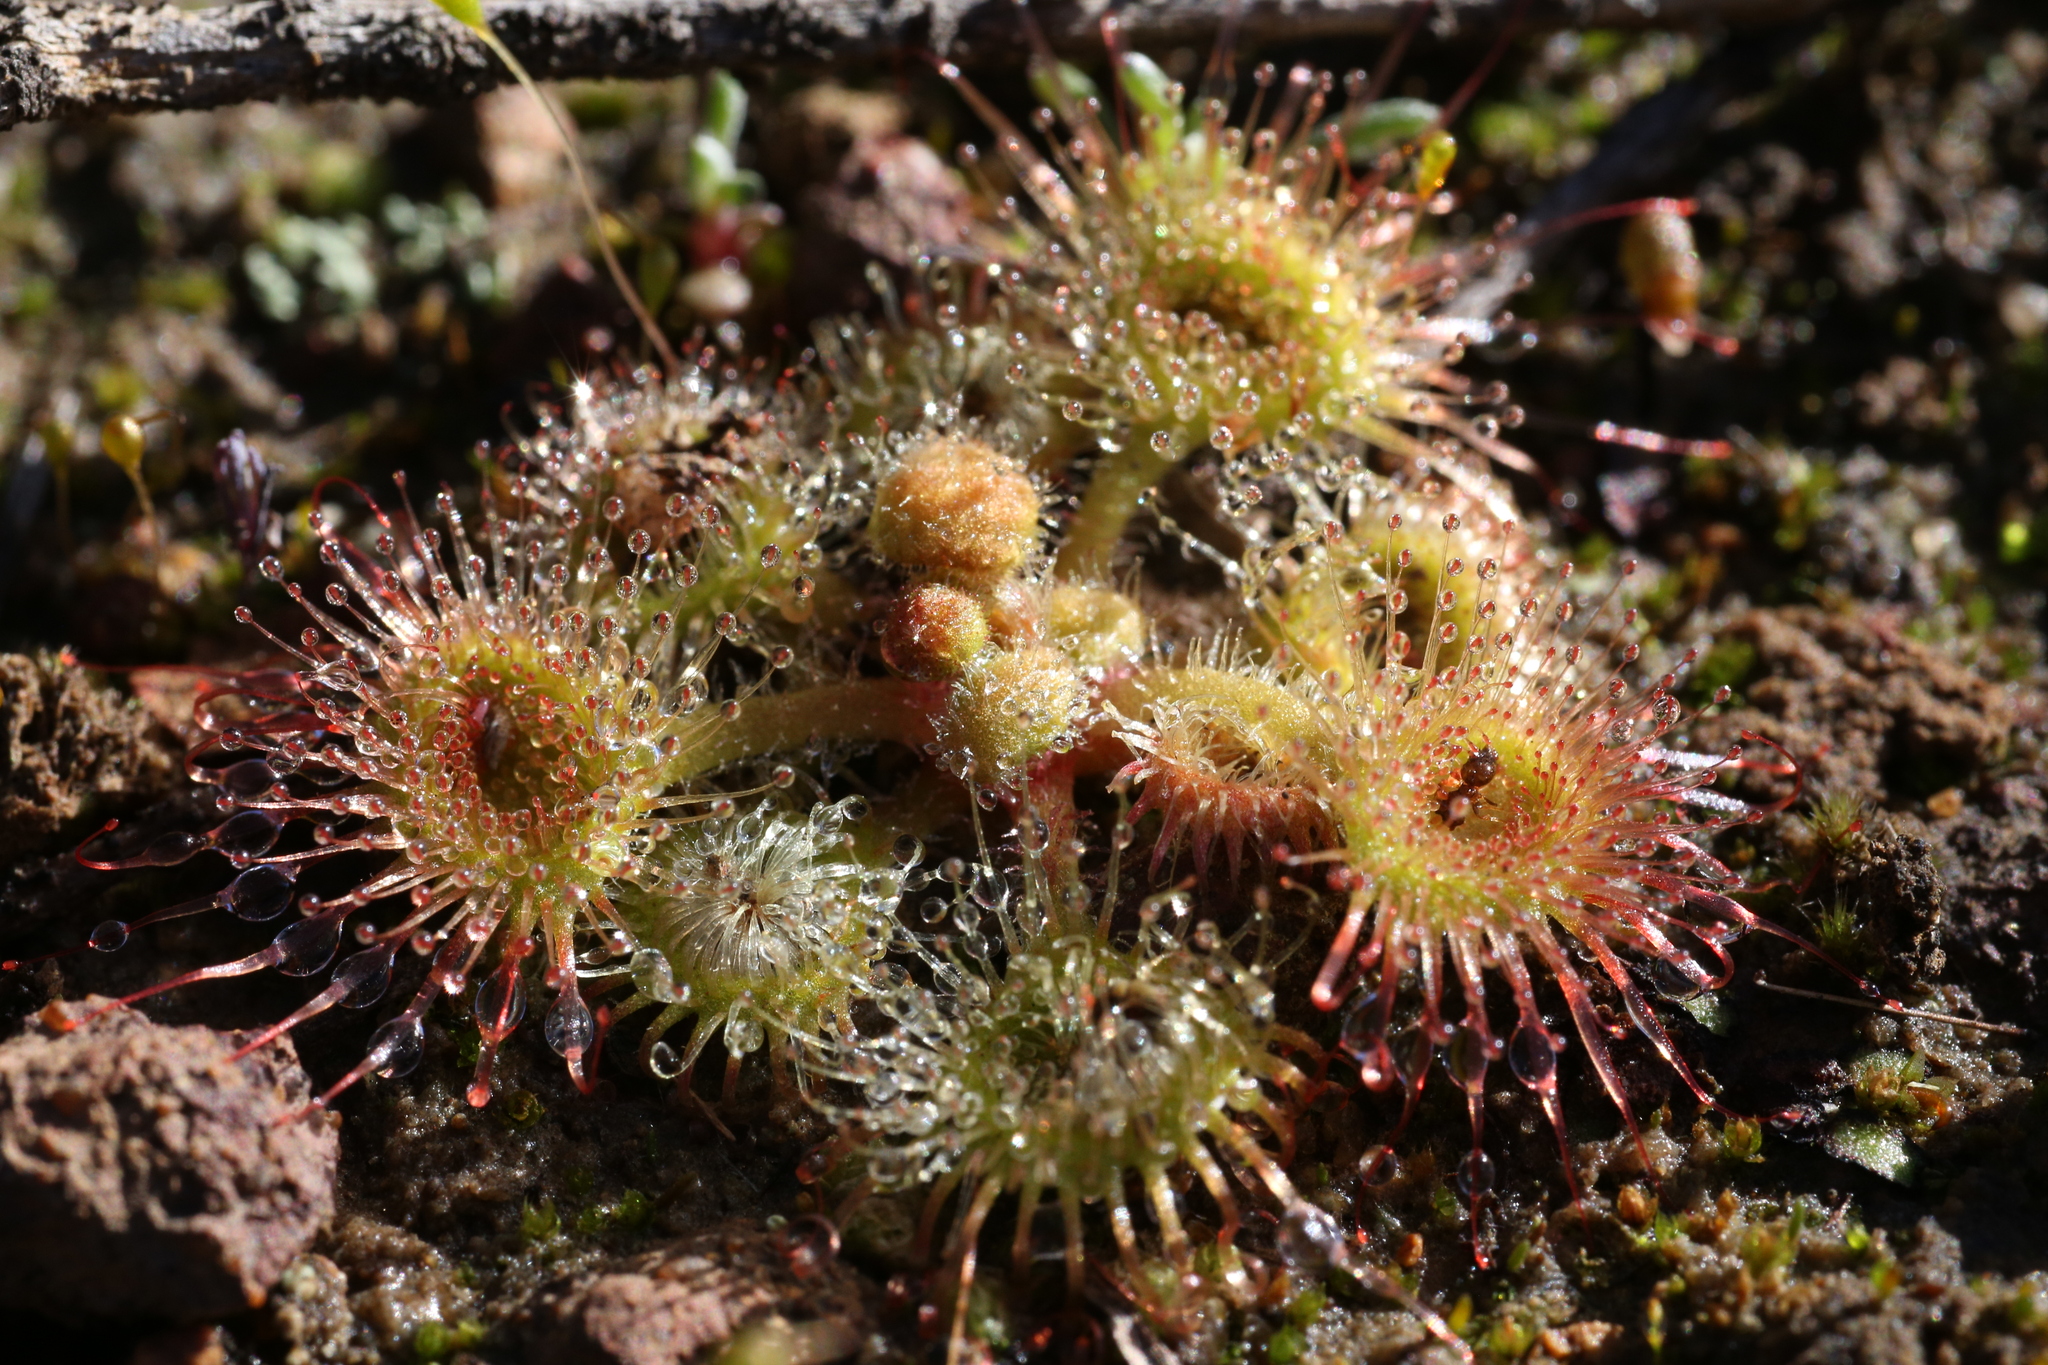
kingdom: Plantae
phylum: Tracheophyta
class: Magnoliopsida
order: Caryophyllales
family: Droseraceae
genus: Drosera
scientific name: Drosera glanduligera
